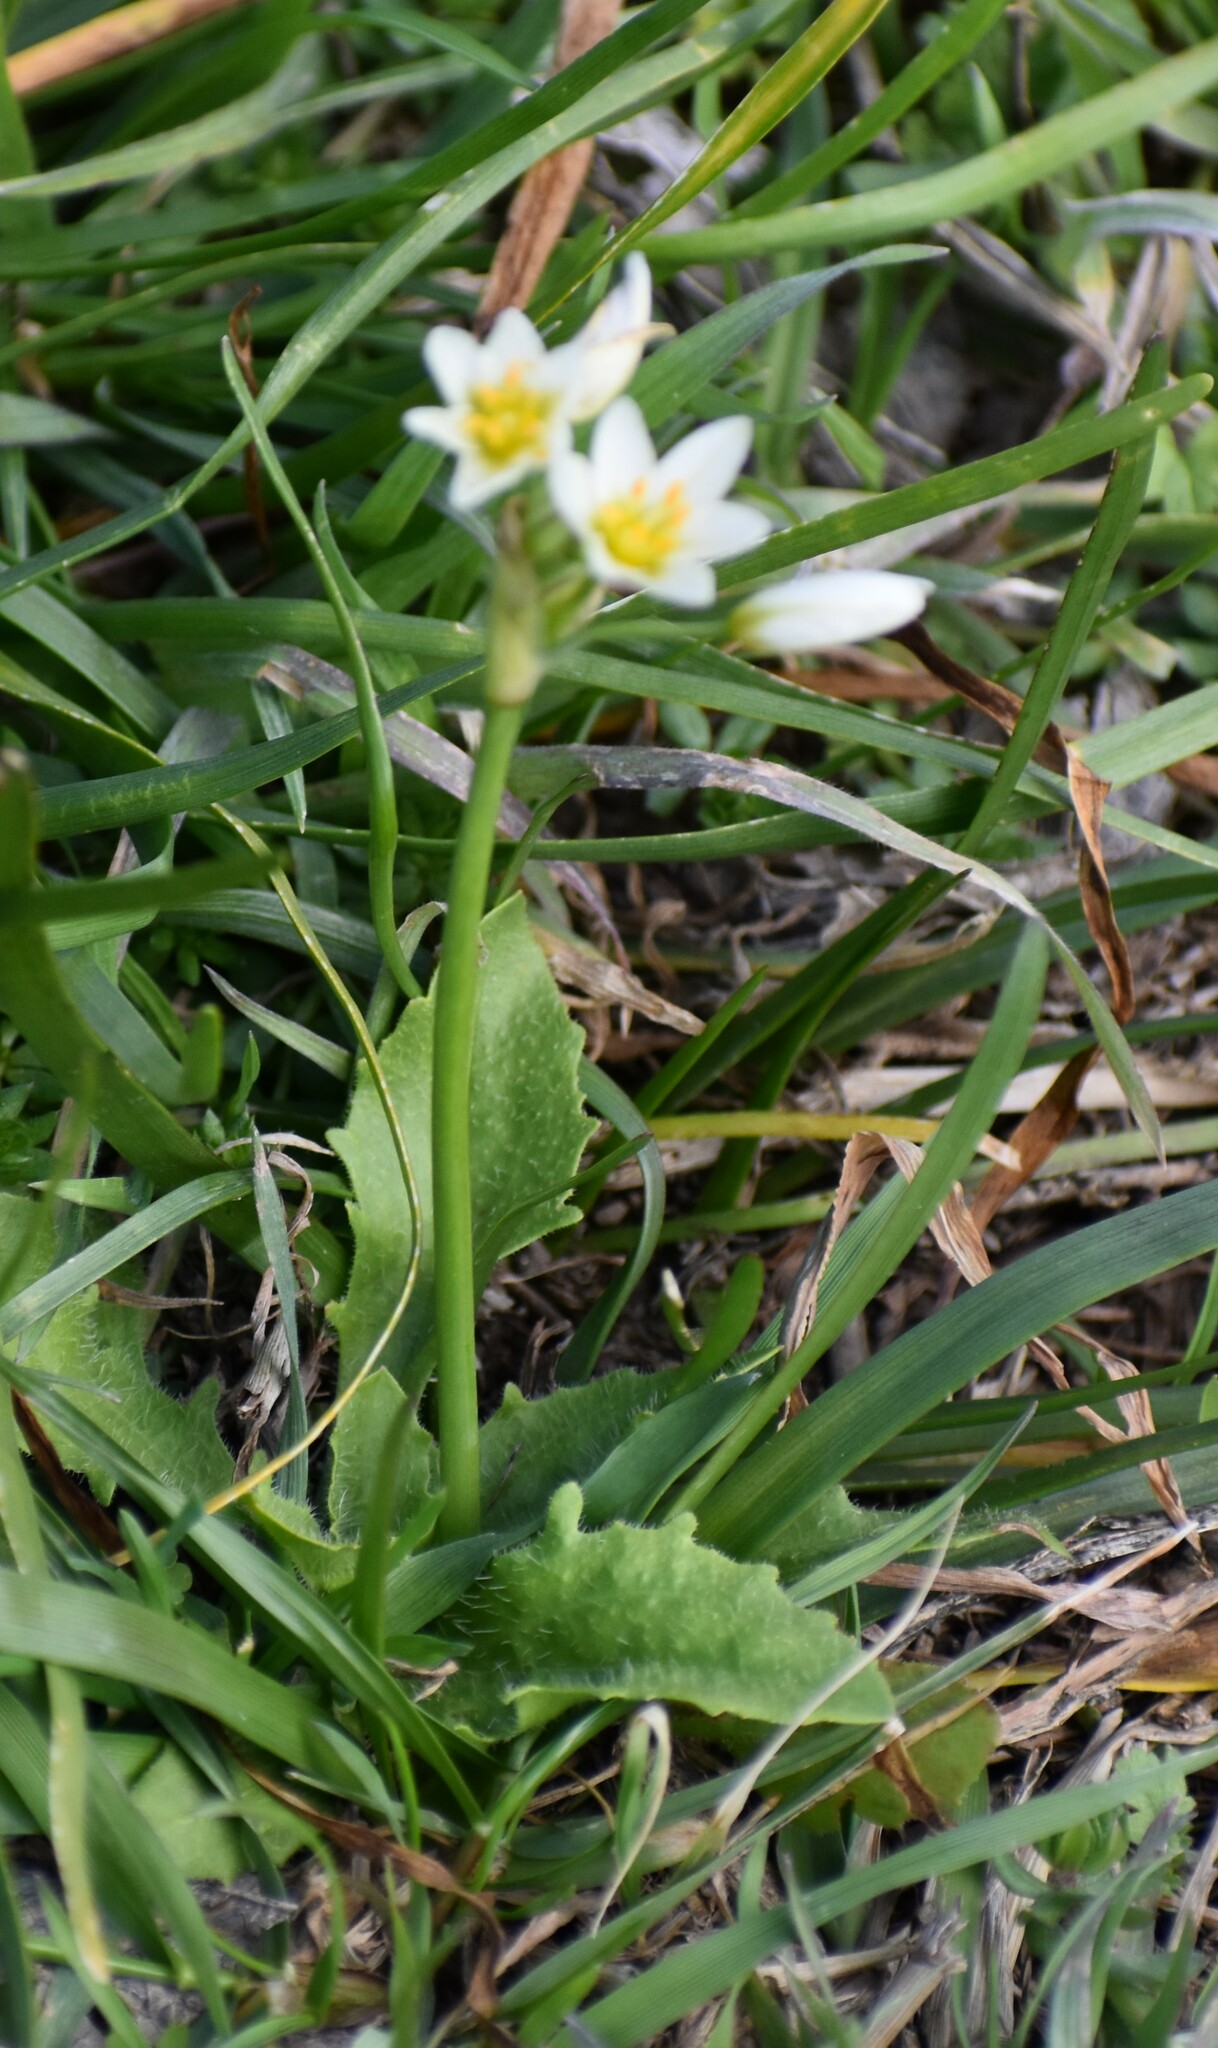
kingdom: Plantae
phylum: Tracheophyta
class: Liliopsida
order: Asparagales
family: Amaryllidaceae
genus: Nothoscordum
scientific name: Nothoscordum bivalve
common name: Crow-poison
